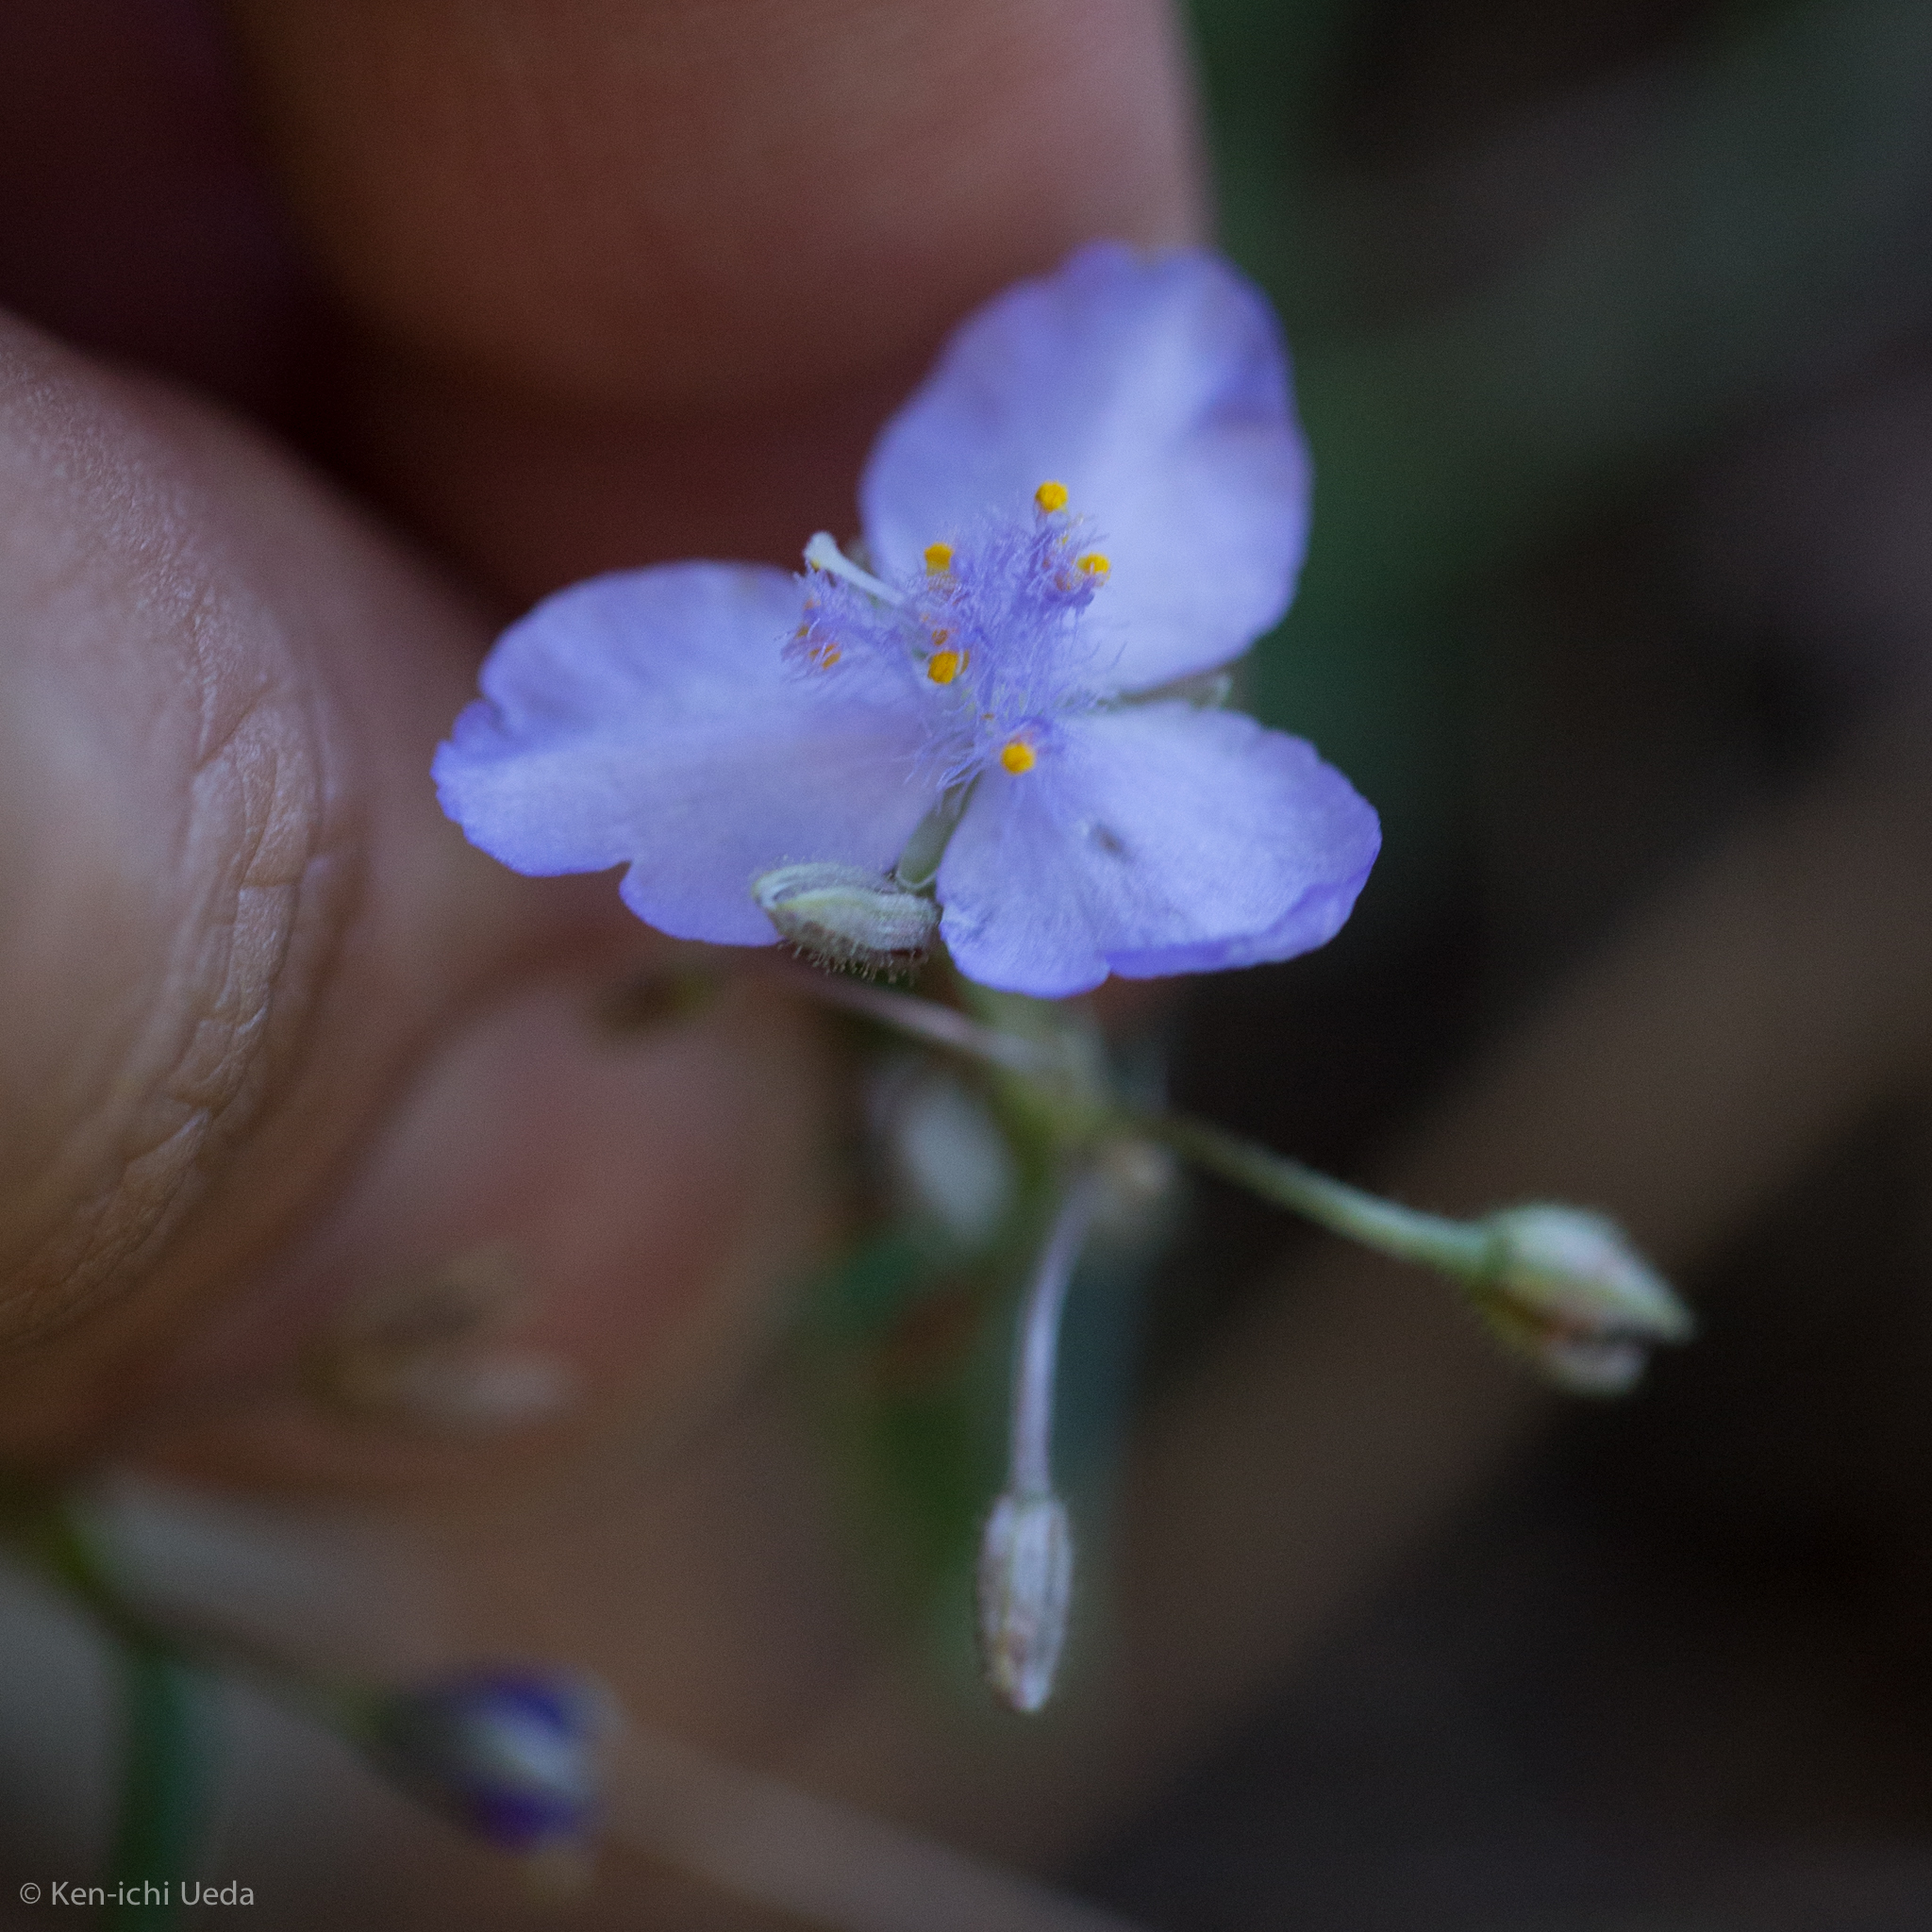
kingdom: Plantae
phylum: Tracheophyta
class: Liliopsida
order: Commelinales
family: Commelinaceae
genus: Tradescantia
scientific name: Tradescantia pinetorum
